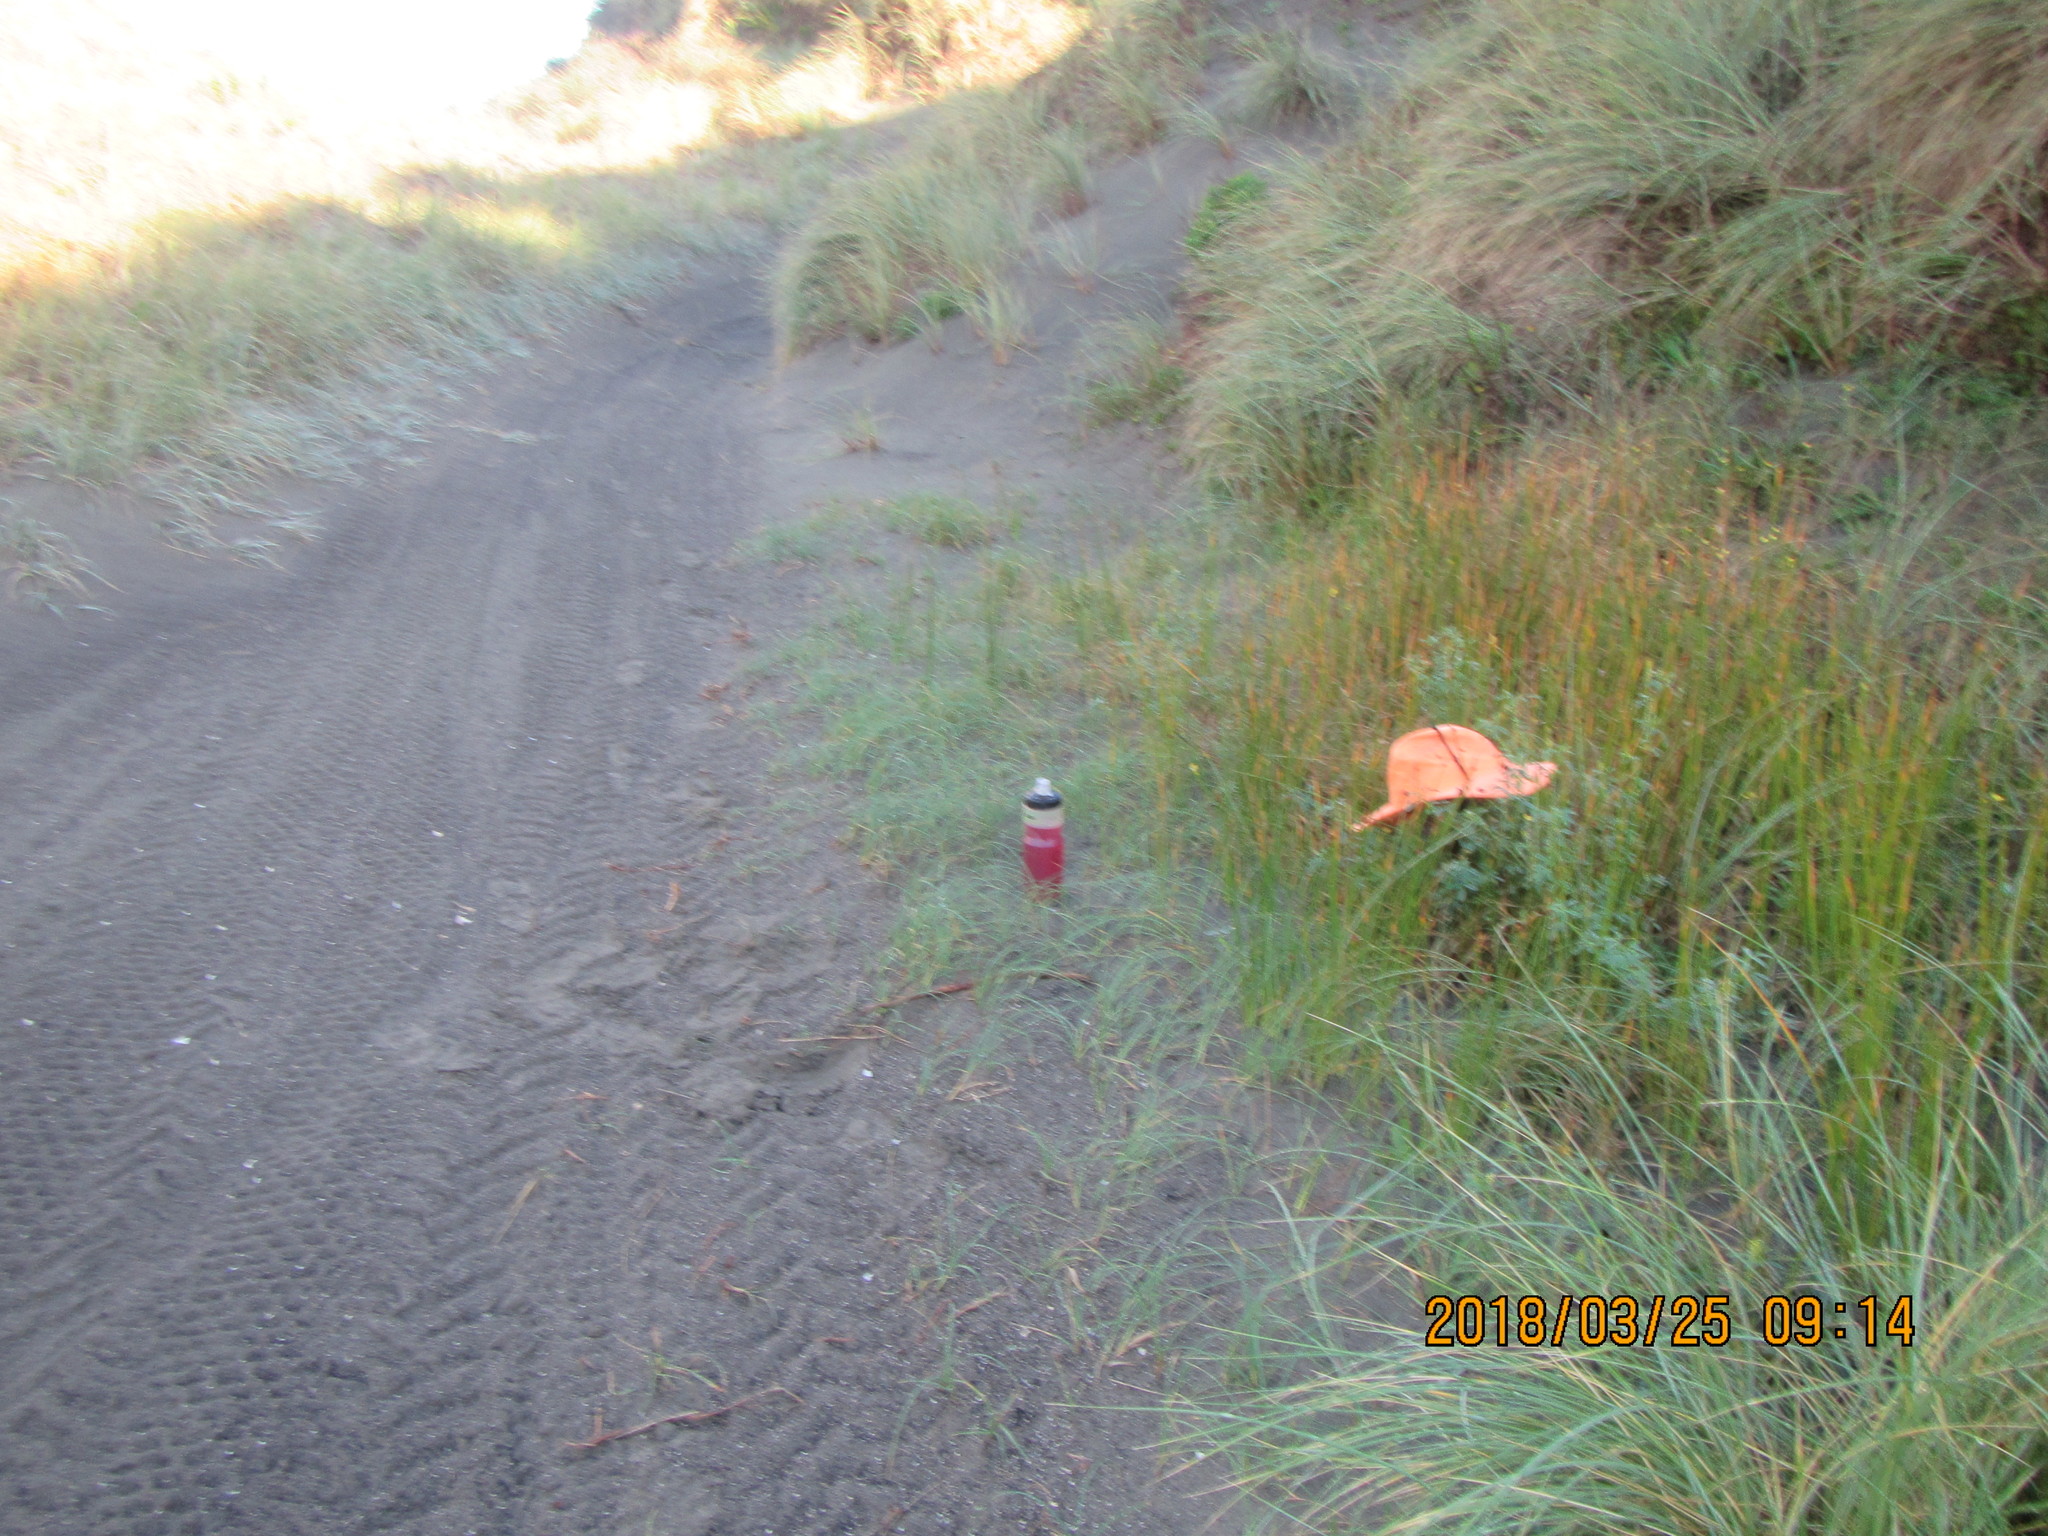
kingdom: Plantae
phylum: Tracheophyta
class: Magnoliopsida
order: Fabales
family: Fabaceae
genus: Melilotus
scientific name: Melilotus indicus
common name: Small melilot
